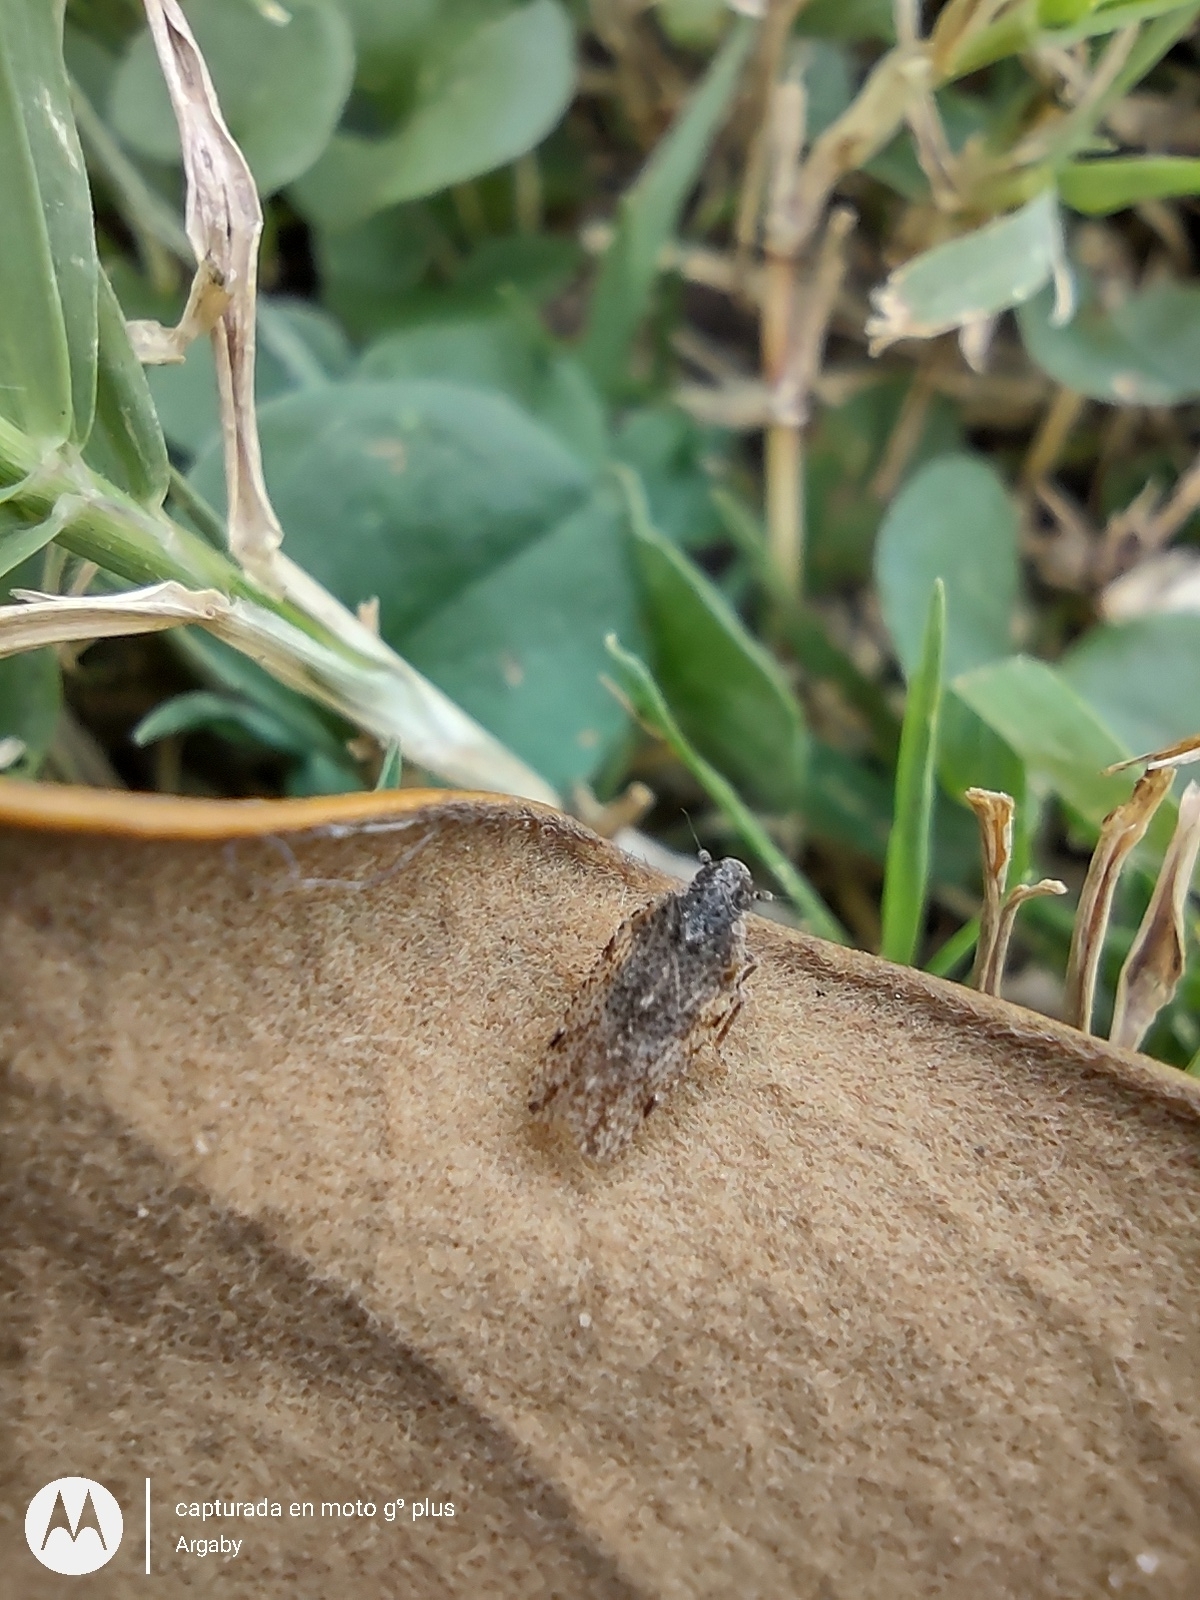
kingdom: Animalia
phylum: Arthropoda
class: Insecta
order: Hemiptera
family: Cixiidae
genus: Cixiosoma
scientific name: Cixiosoma bonaerense
